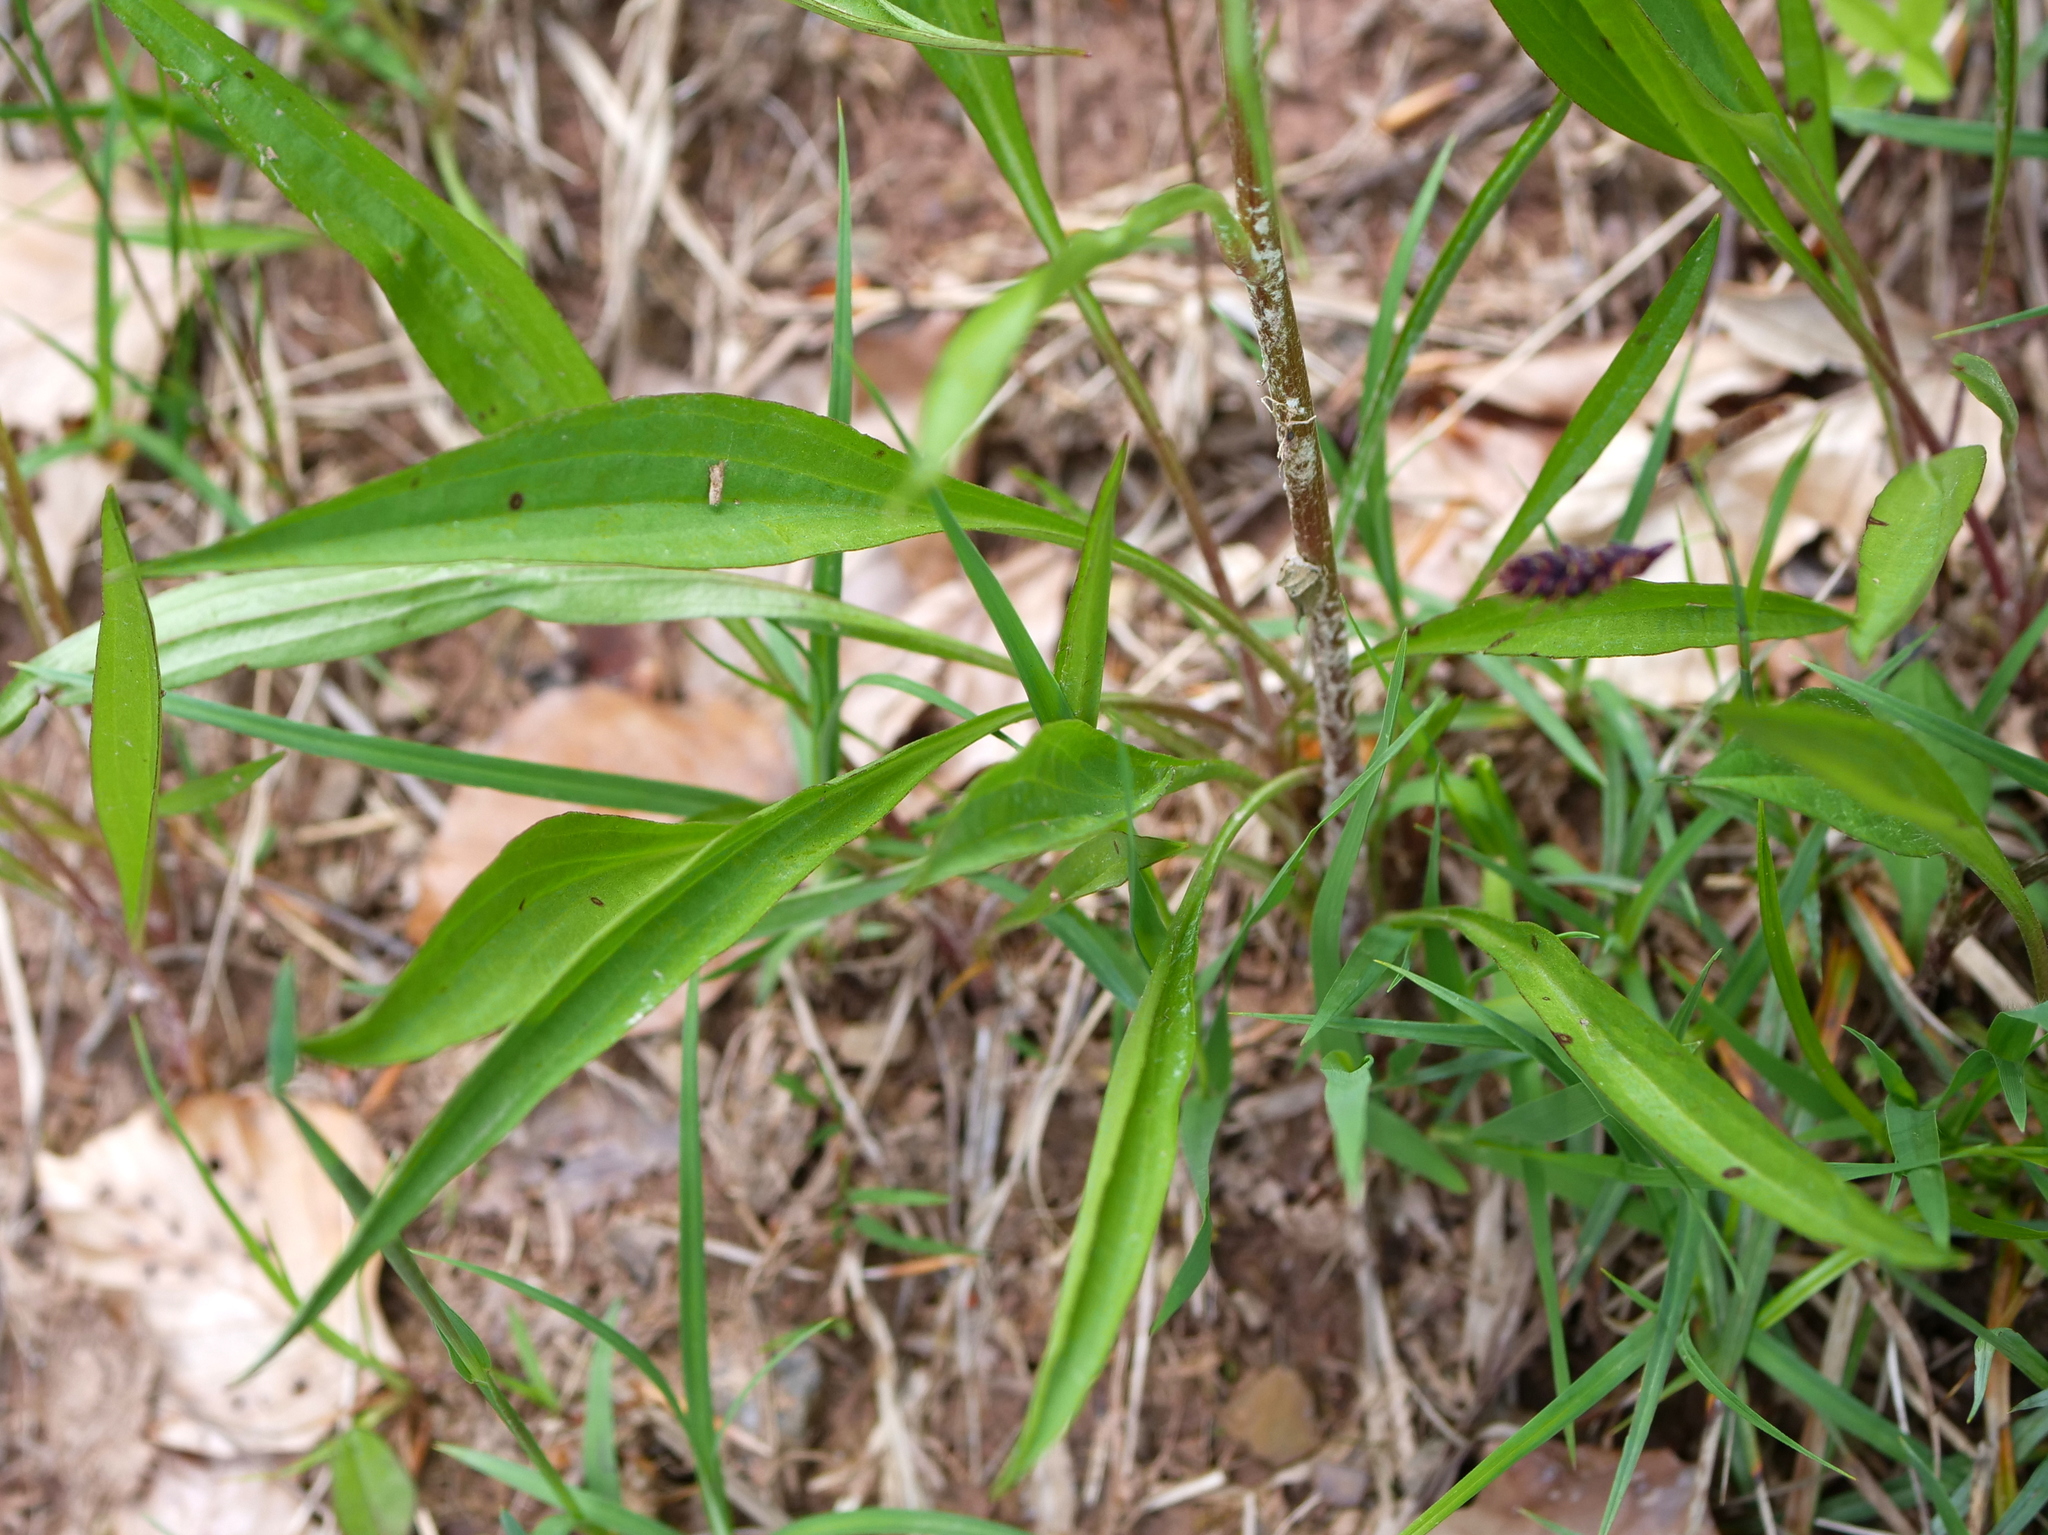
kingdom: Plantae
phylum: Tracheophyta
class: Magnoliopsida
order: Asterales
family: Asteraceae
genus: Scorzonera
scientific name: Scorzonera humilis
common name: Viper's-grass
